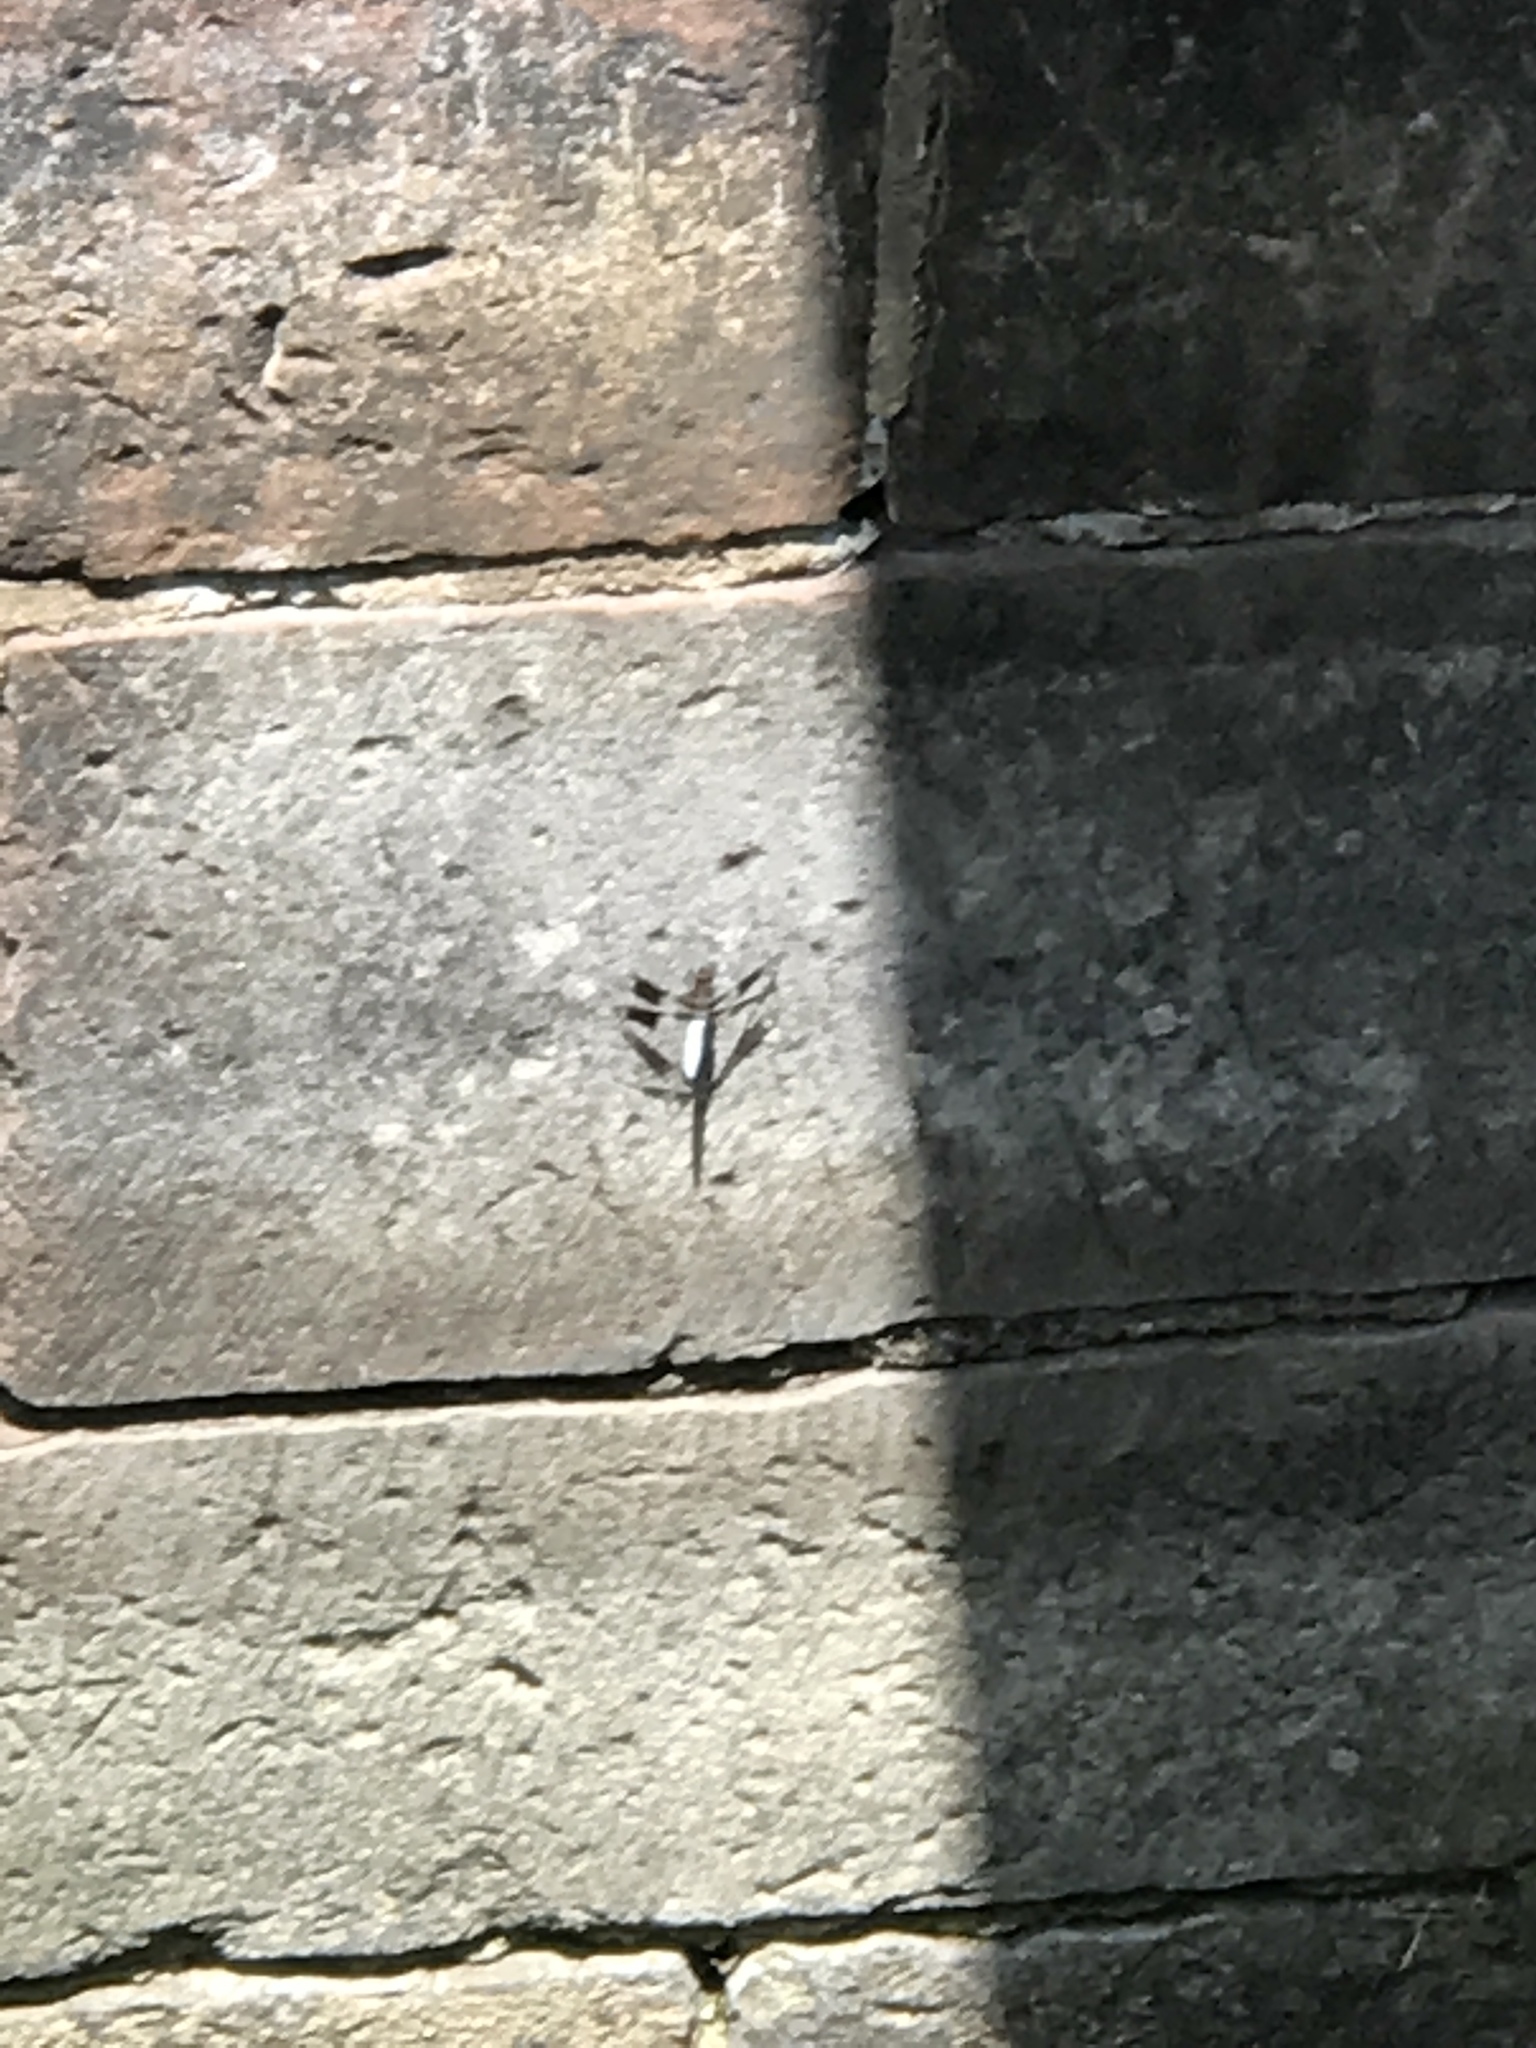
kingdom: Animalia
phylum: Arthropoda
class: Insecta
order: Odonata
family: Libellulidae
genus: Plathemis
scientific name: Plathemis lydia
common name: Common whitetail
